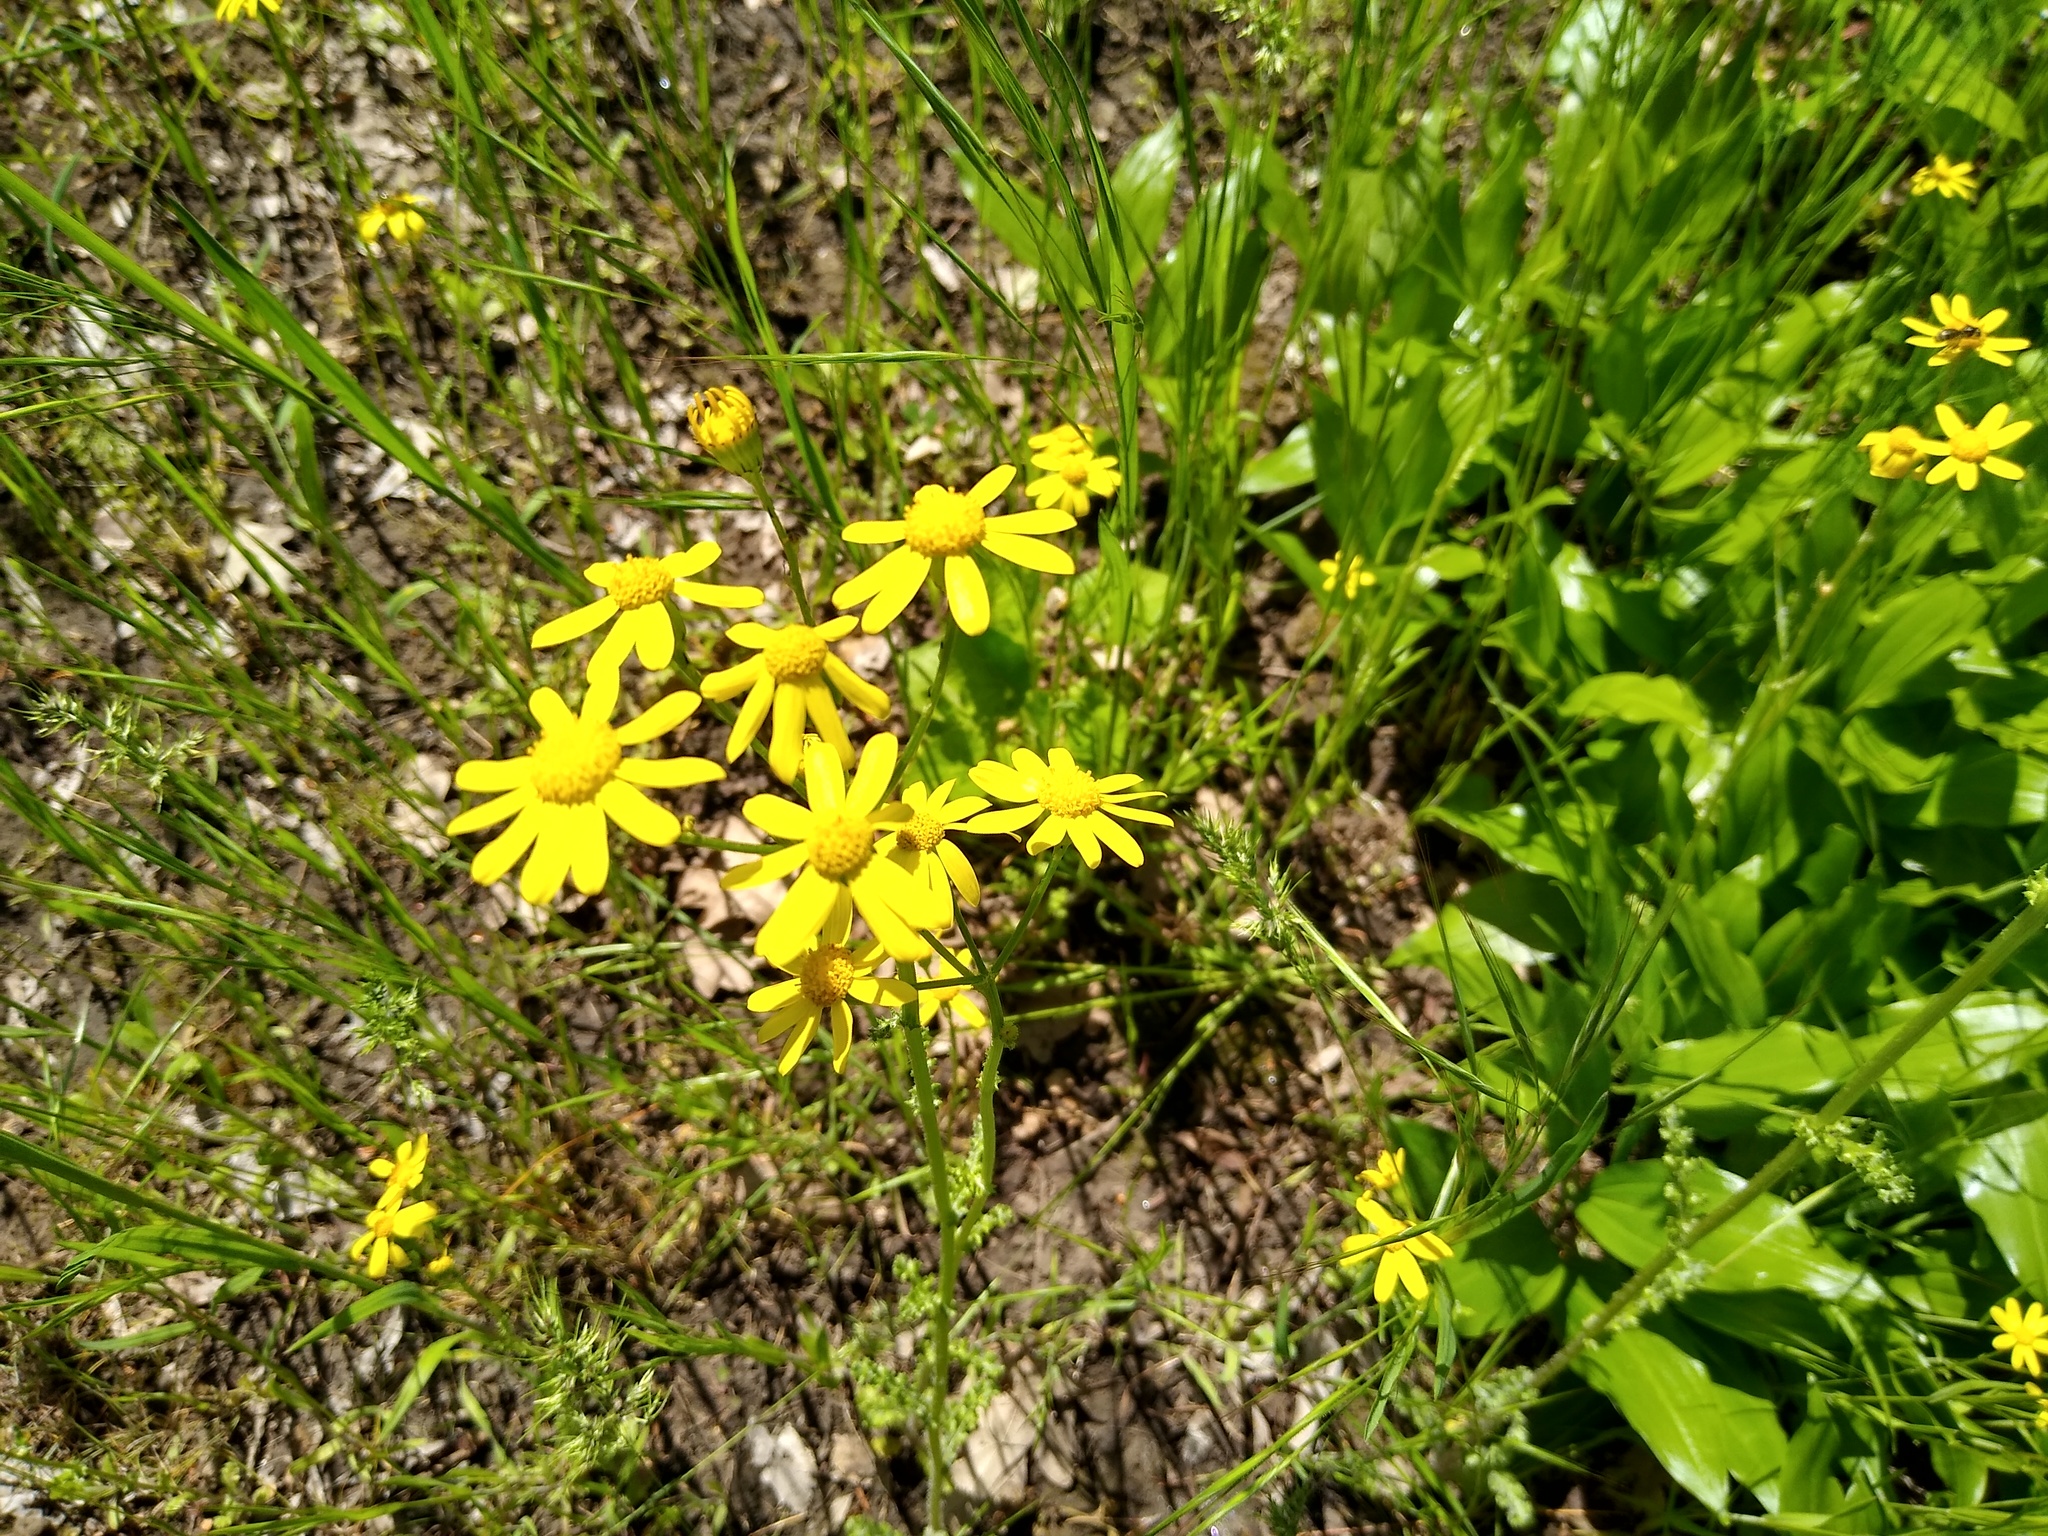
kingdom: Plantae
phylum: Tracheophyta
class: Magnoliopsida
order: Asterales
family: Asteraceae
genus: Senecio
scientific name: Senecio vernalis
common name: Eastern groundsel
